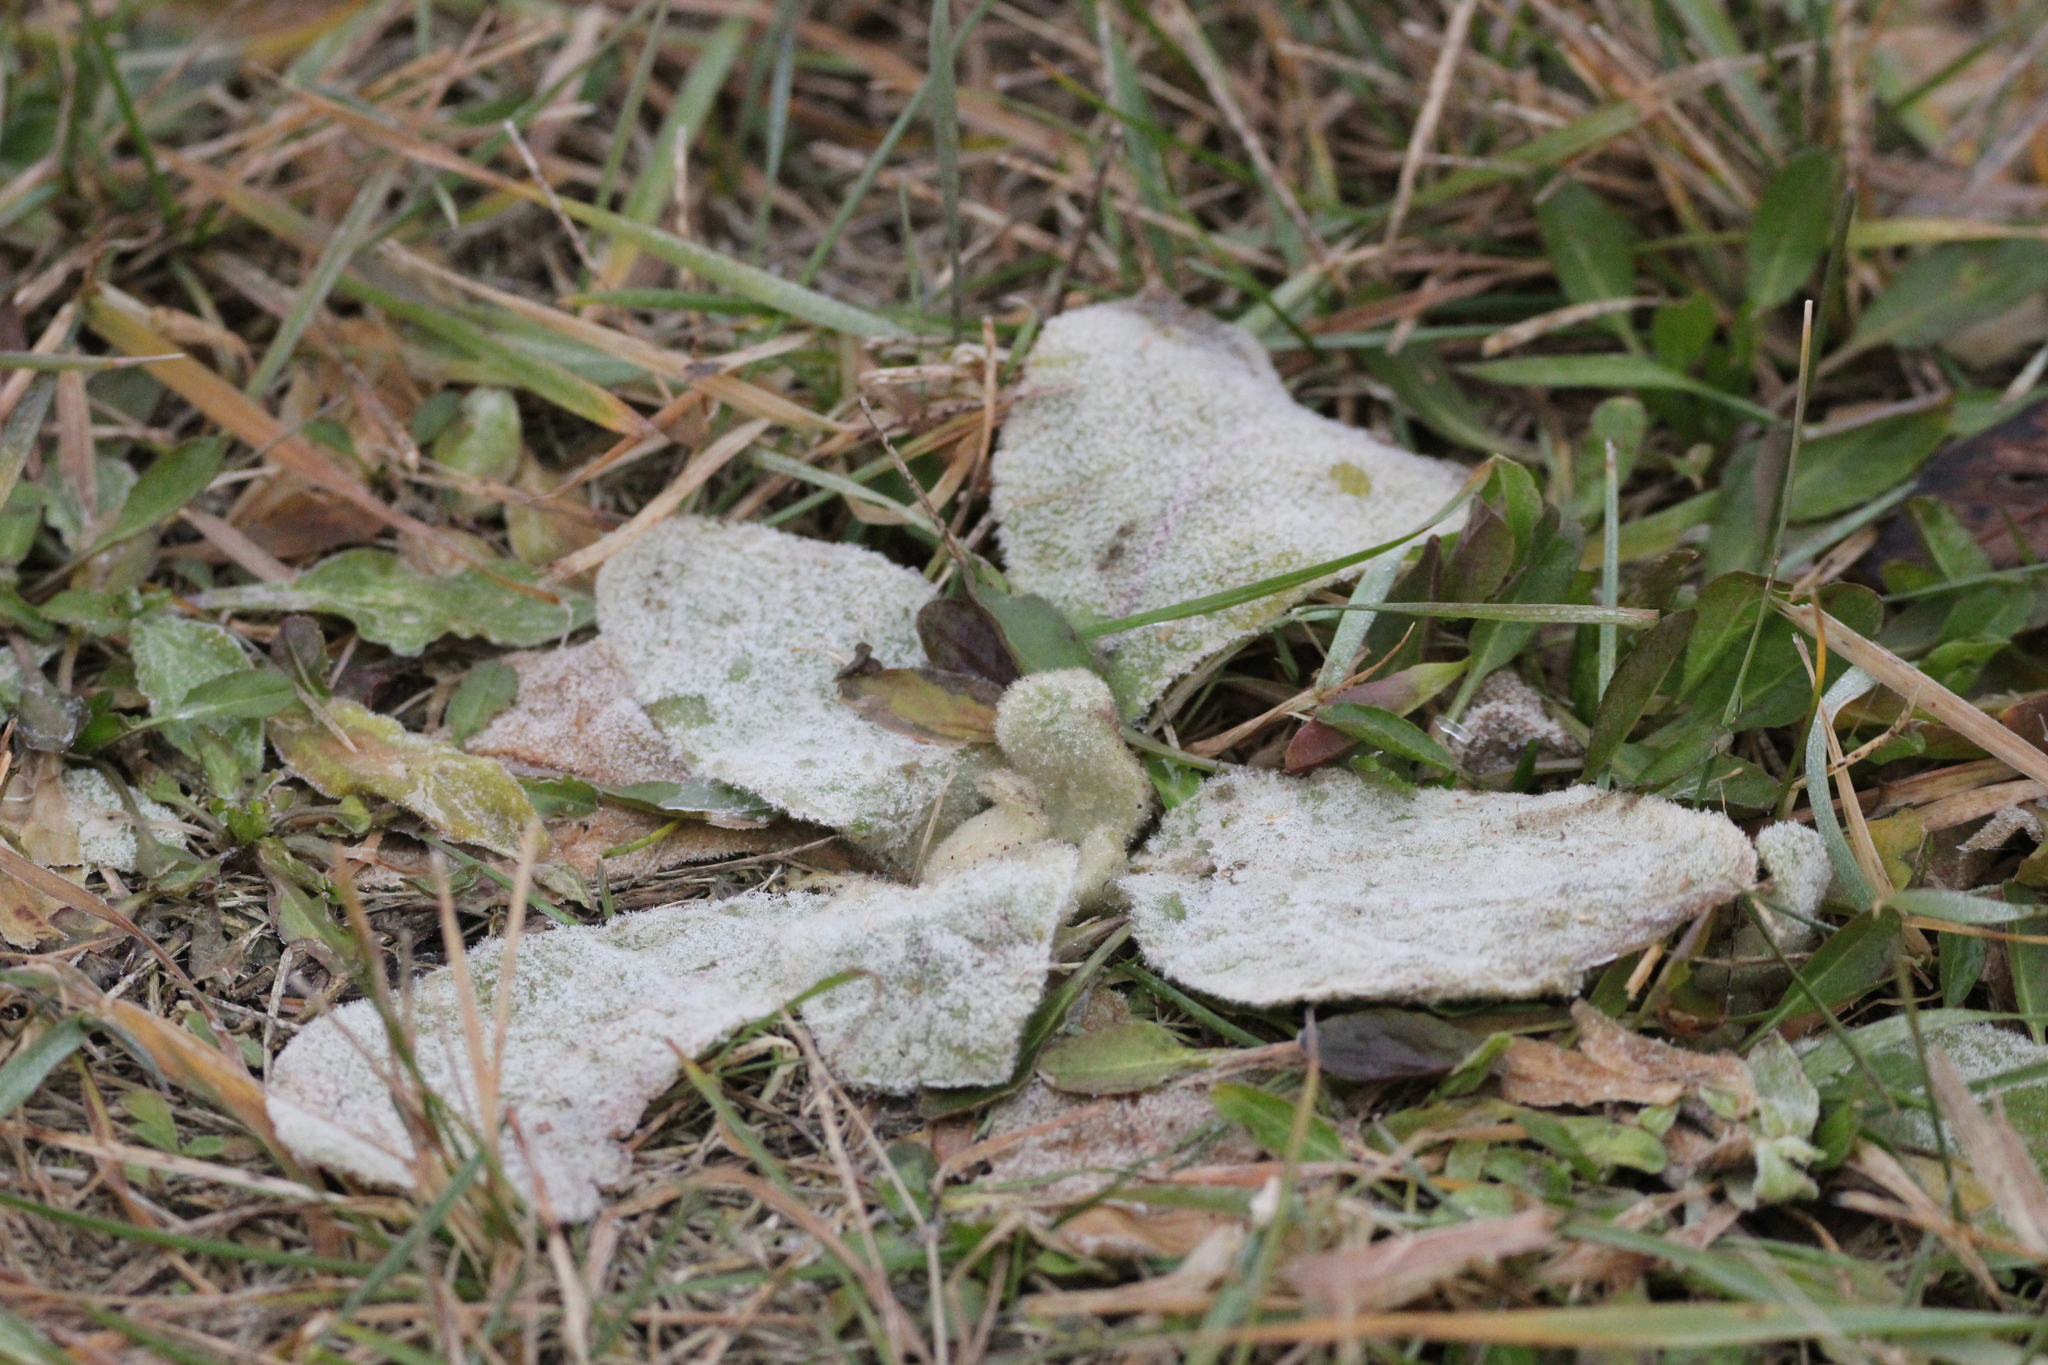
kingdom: Plantae
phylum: Tracheophyta
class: Magnoliopsida
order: Lamiales
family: Scrophulariaceae
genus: Verbascum
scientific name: Verbascum thapsus
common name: Common mullein
